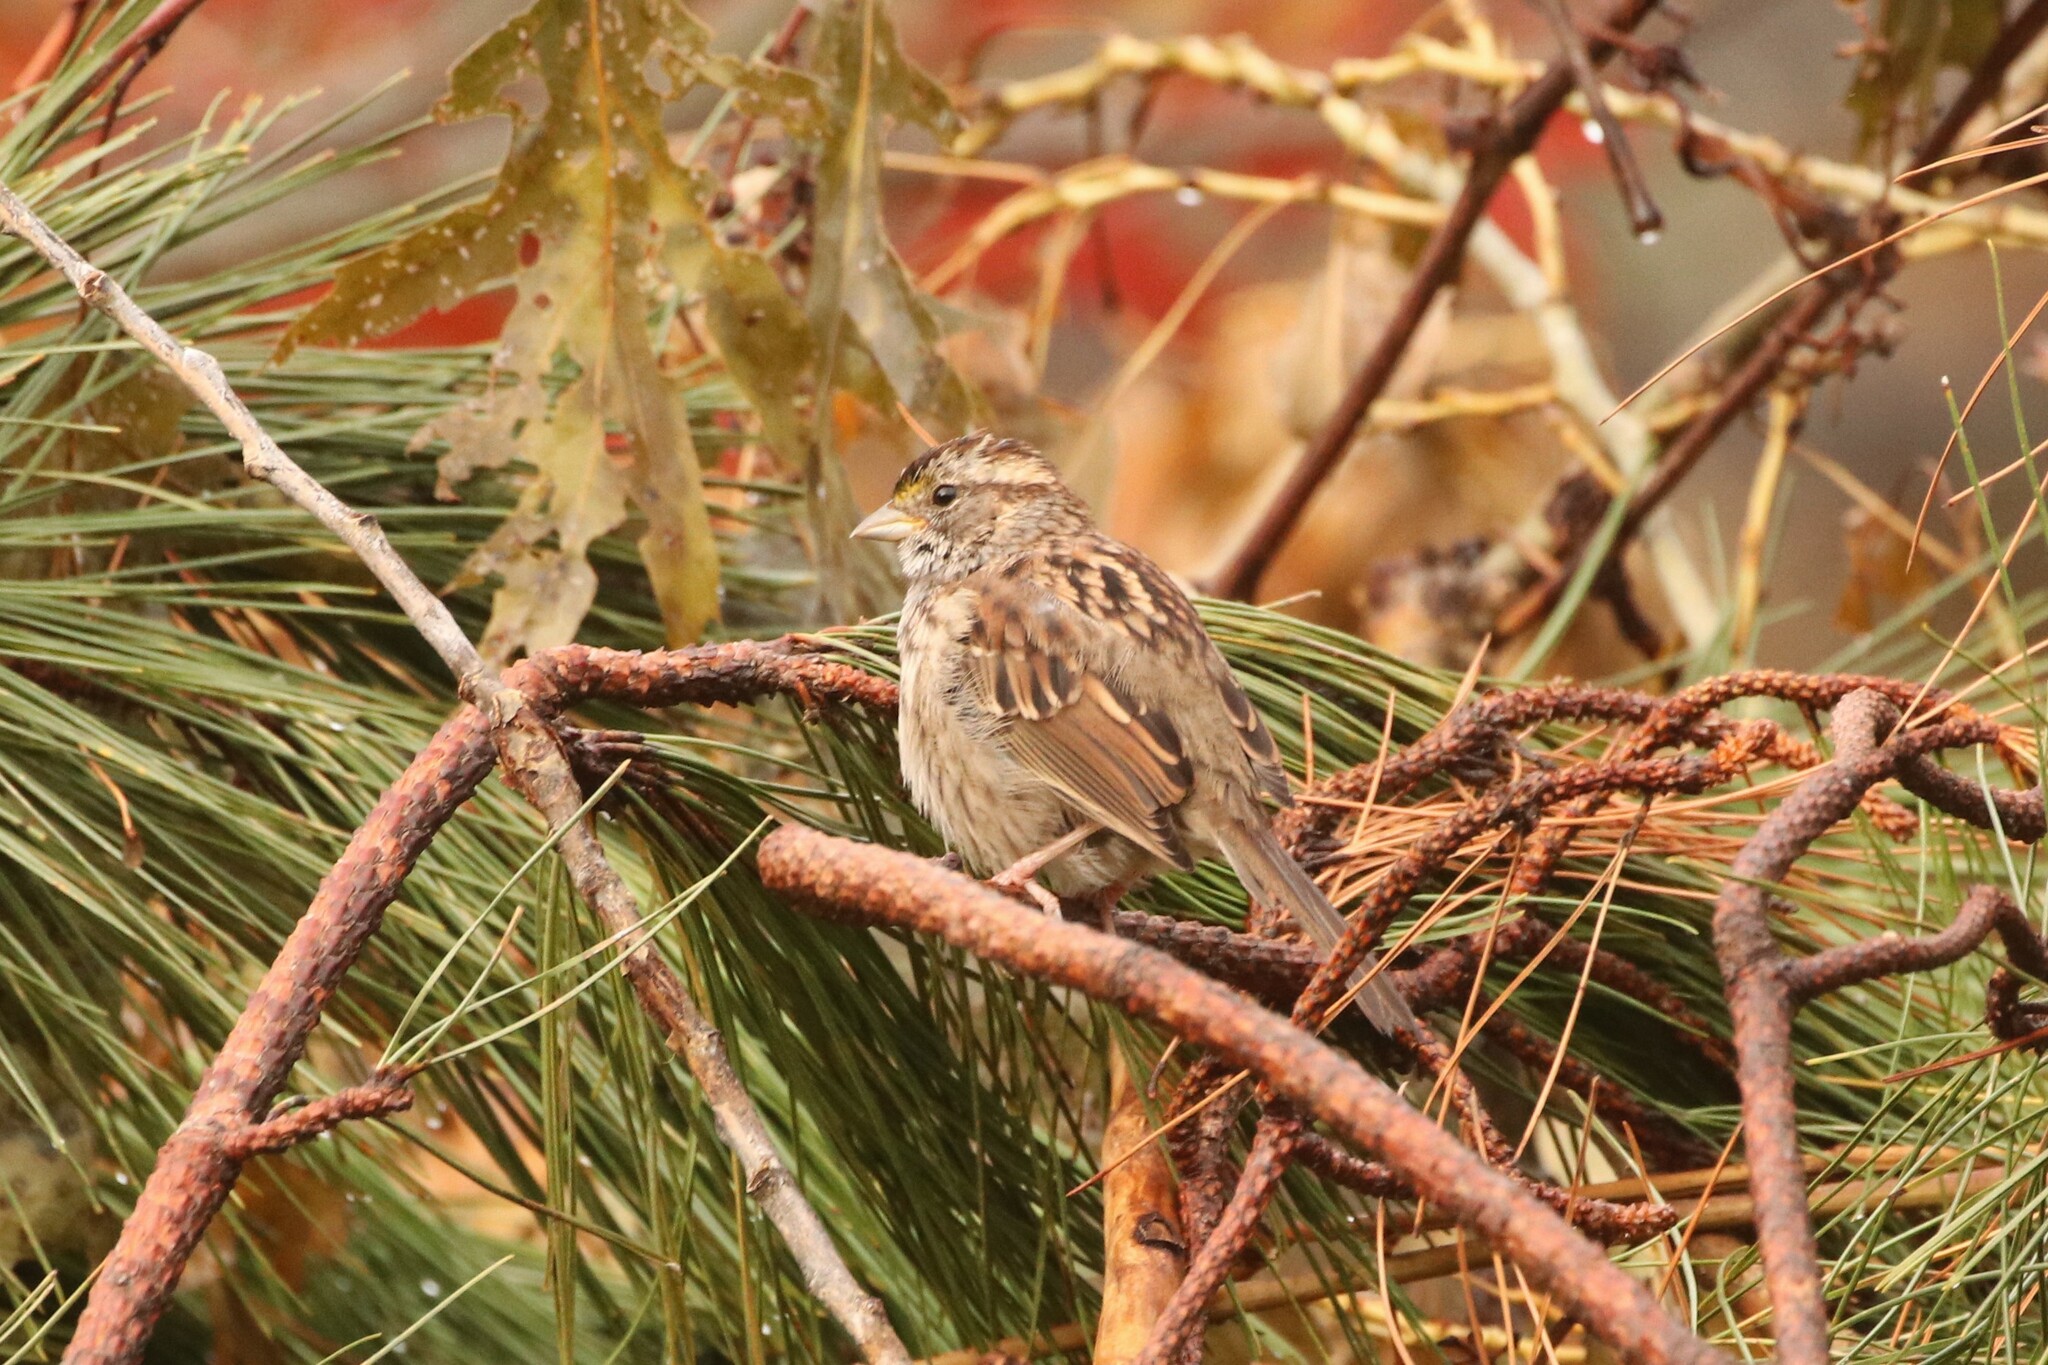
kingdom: Animalia
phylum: Chordata
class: Aves
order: Passeriformes
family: Passerellidae
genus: Zonotrichia
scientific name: Zonotrichia albicollis
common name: White-throated sparrow
